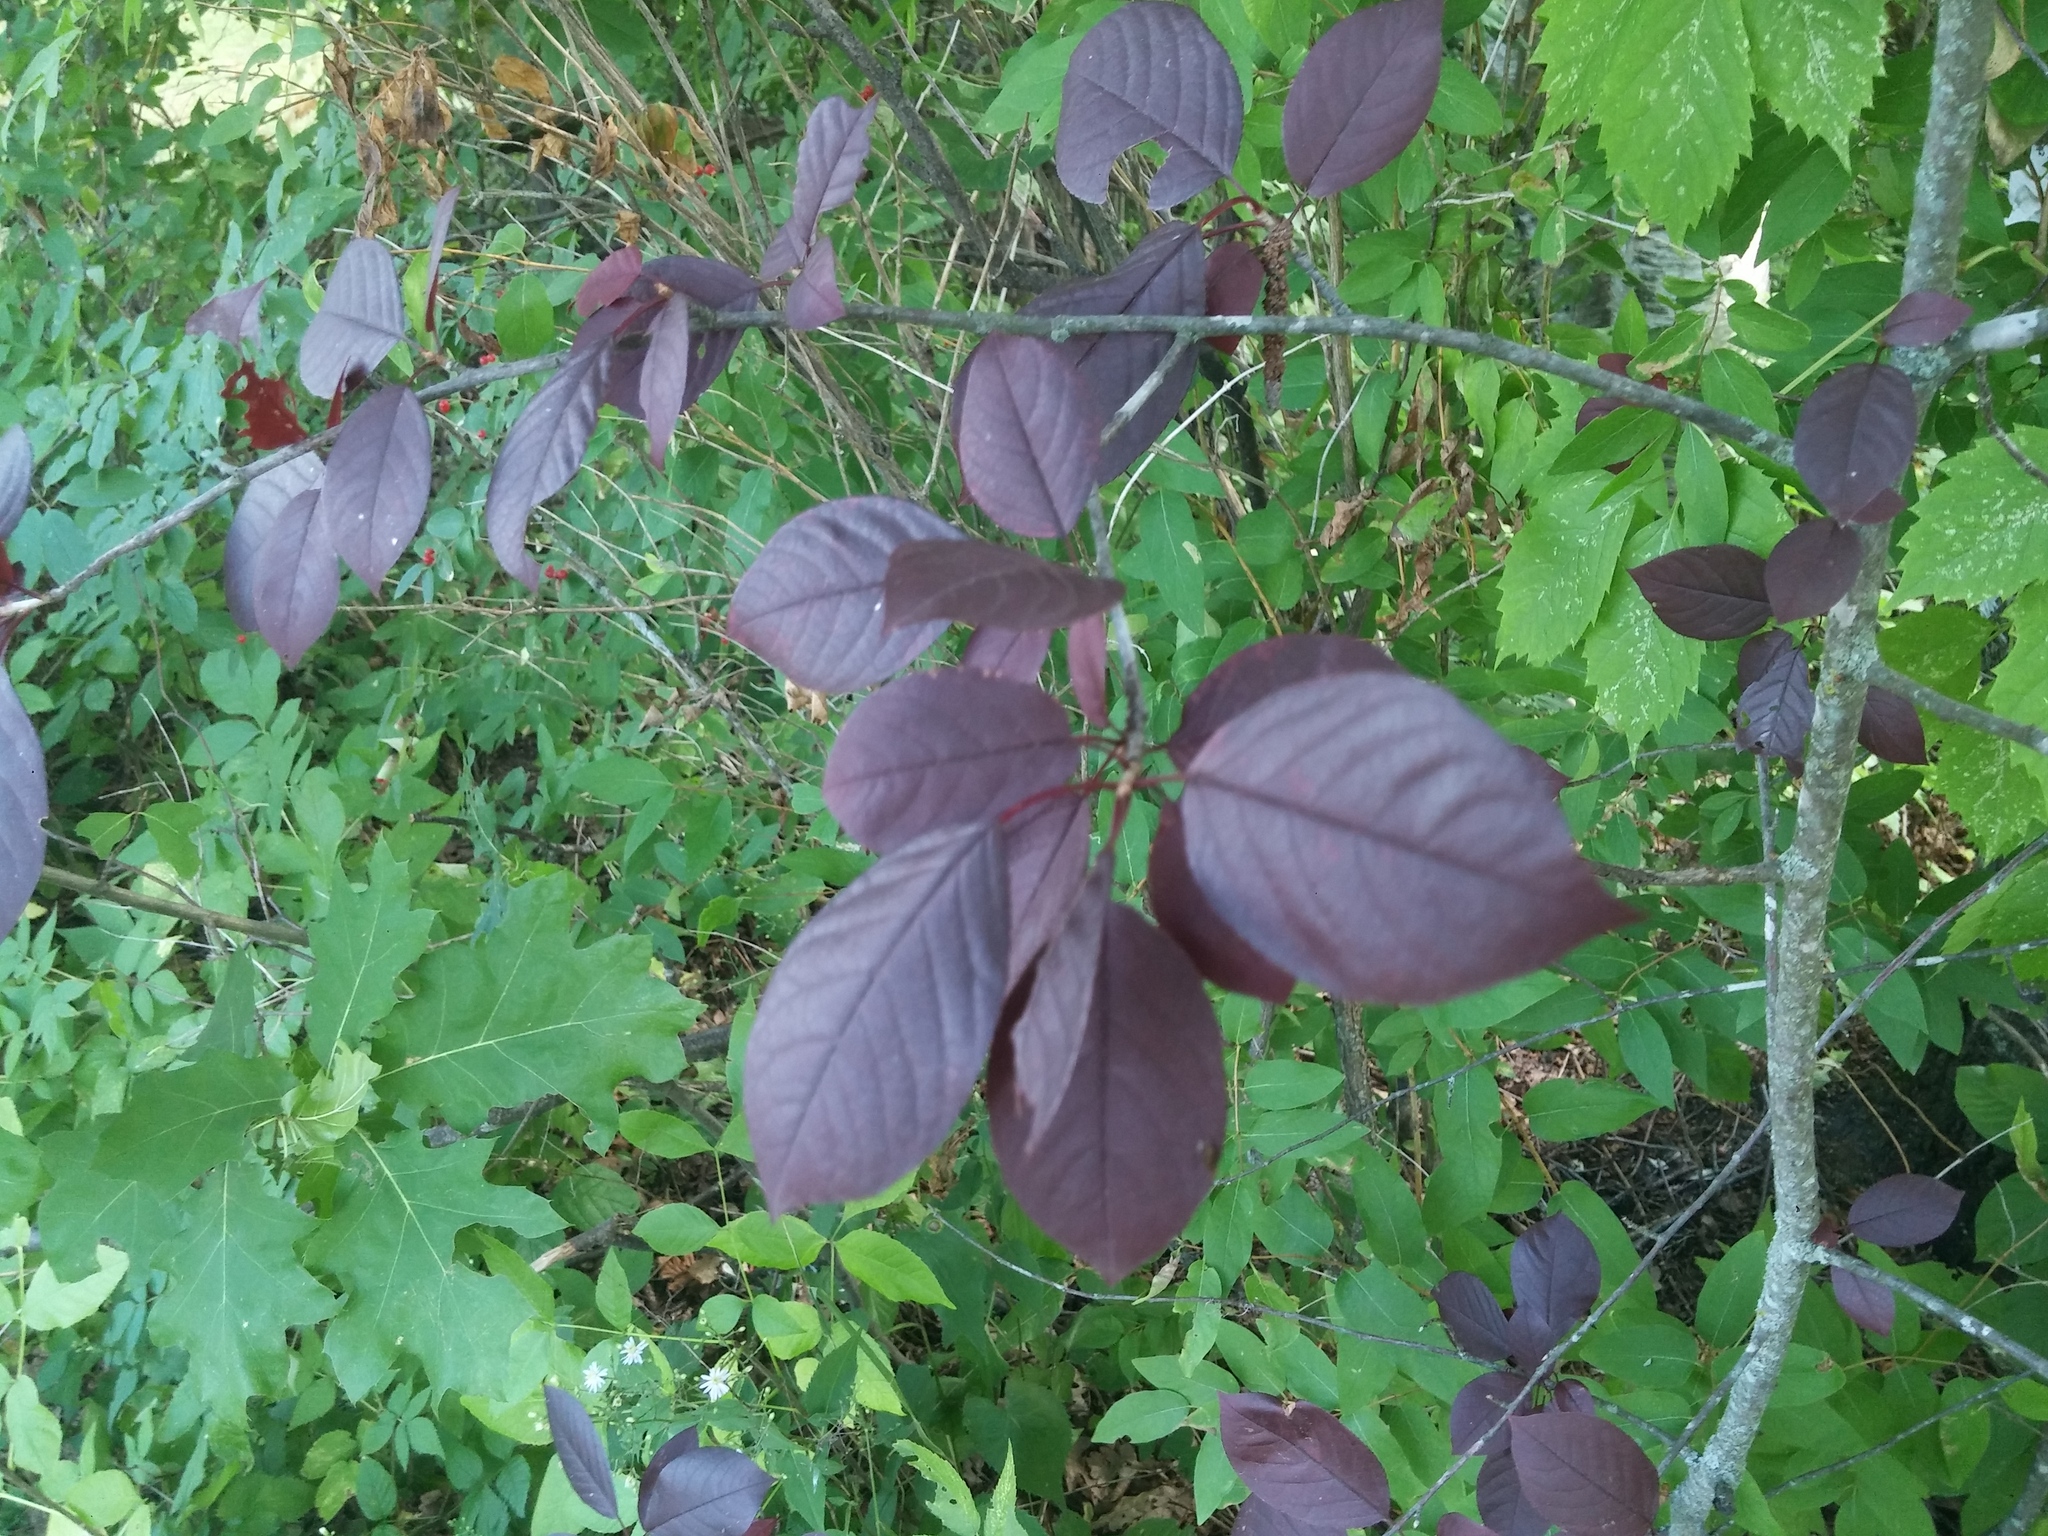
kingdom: Plantae
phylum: Tracheophyta
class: Magnoliopsida
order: Rosales
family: Rosaceae
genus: Prunus
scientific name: Prunus virginiana
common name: Chokecherry
